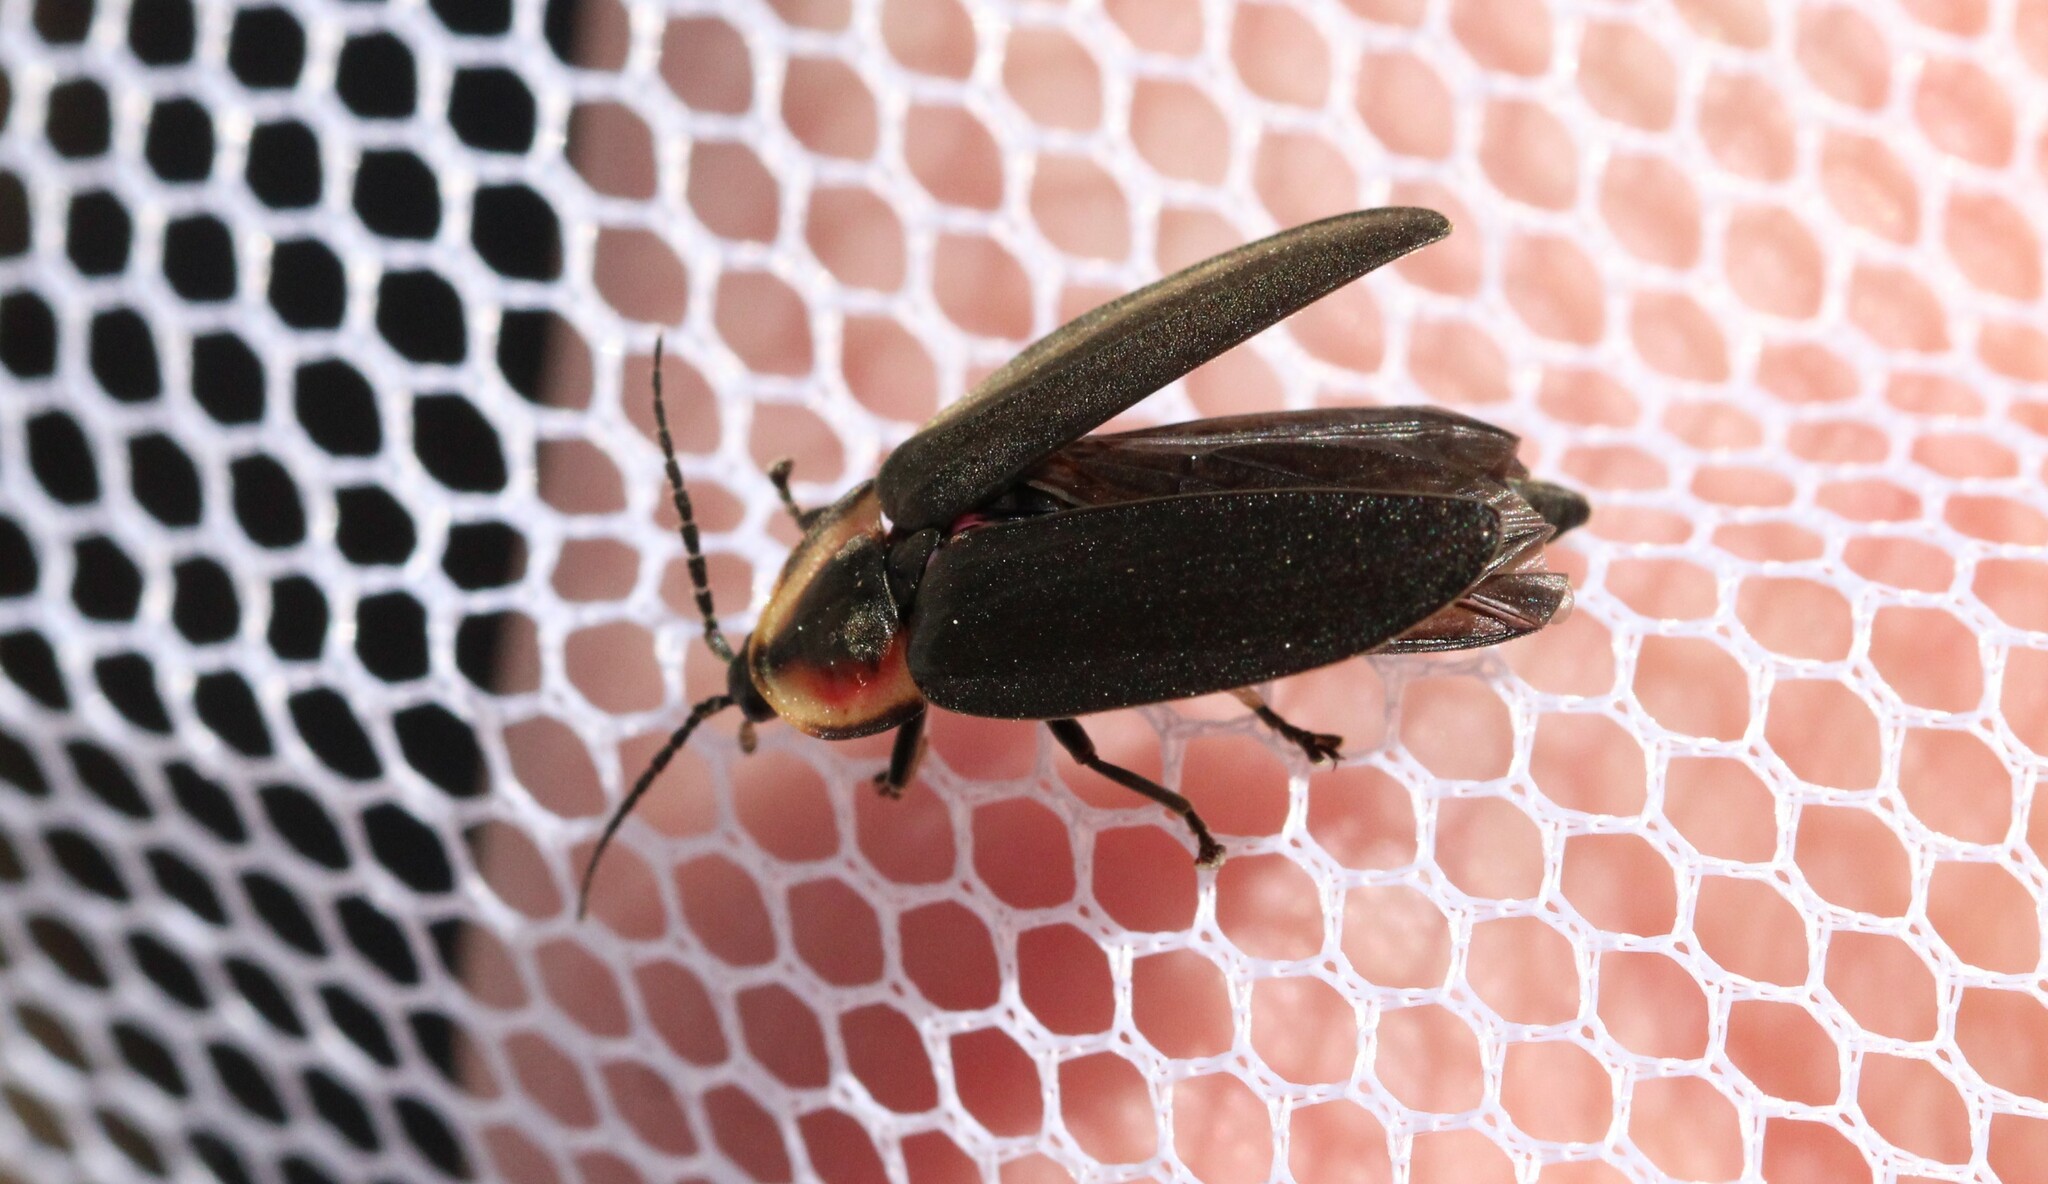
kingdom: Animalia
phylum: Arthropoda
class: Insecta
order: Coleoptera
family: Lampyridae
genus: Photinus
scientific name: Photinus corrusca
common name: Winter firefly
